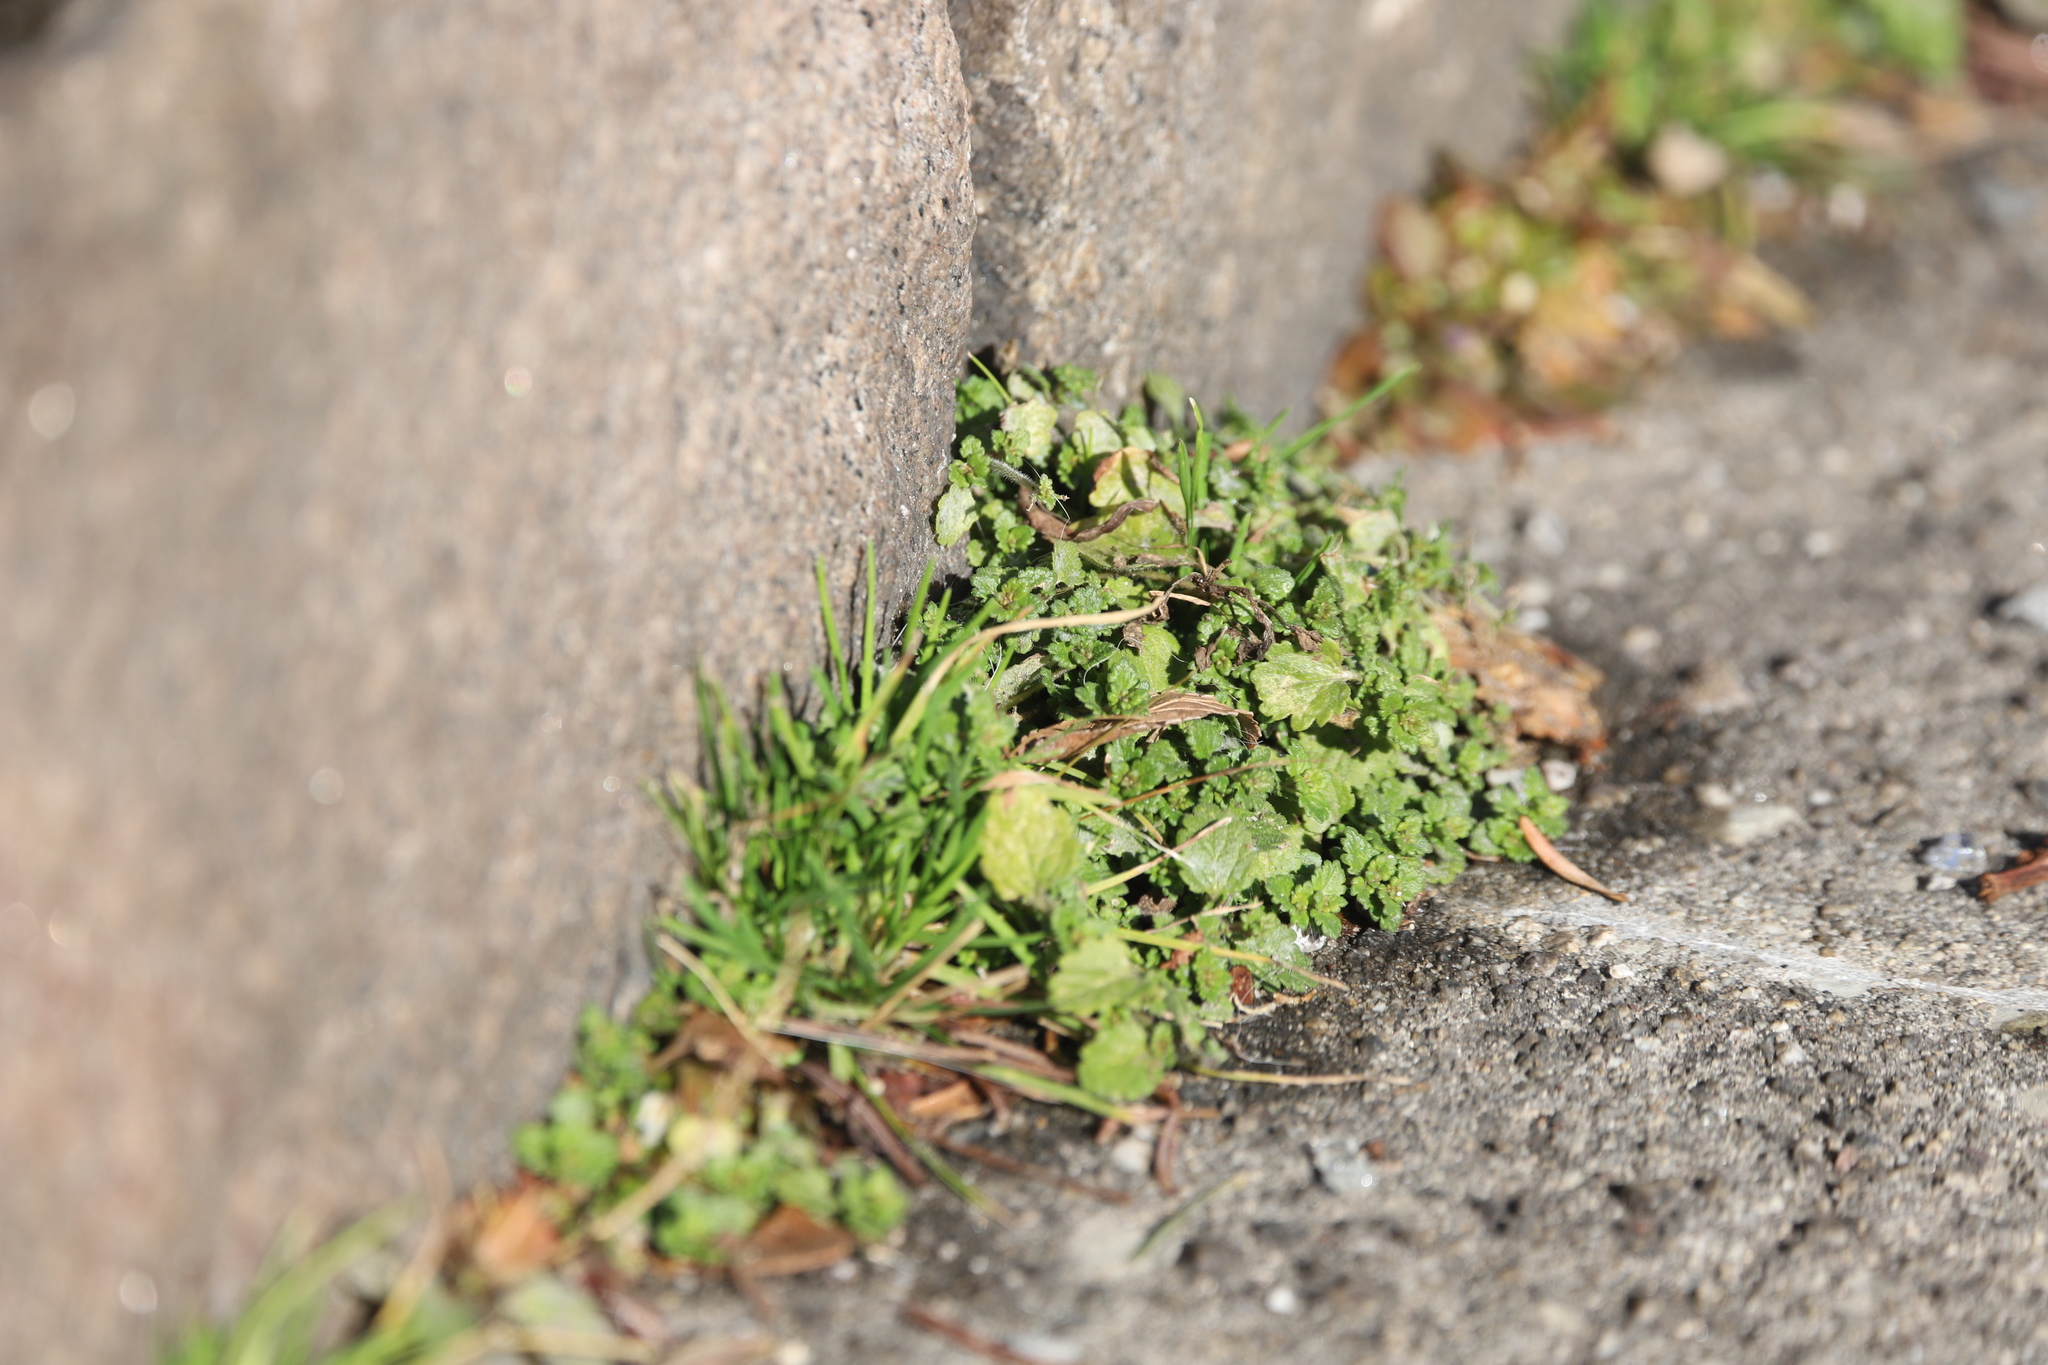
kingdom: Plantae
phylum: Tracheophyta
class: Magnoliopsida
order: Lamiales
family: Plantaginaceae
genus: Veronica
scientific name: Veronica polita
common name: Grey field-speedwell
